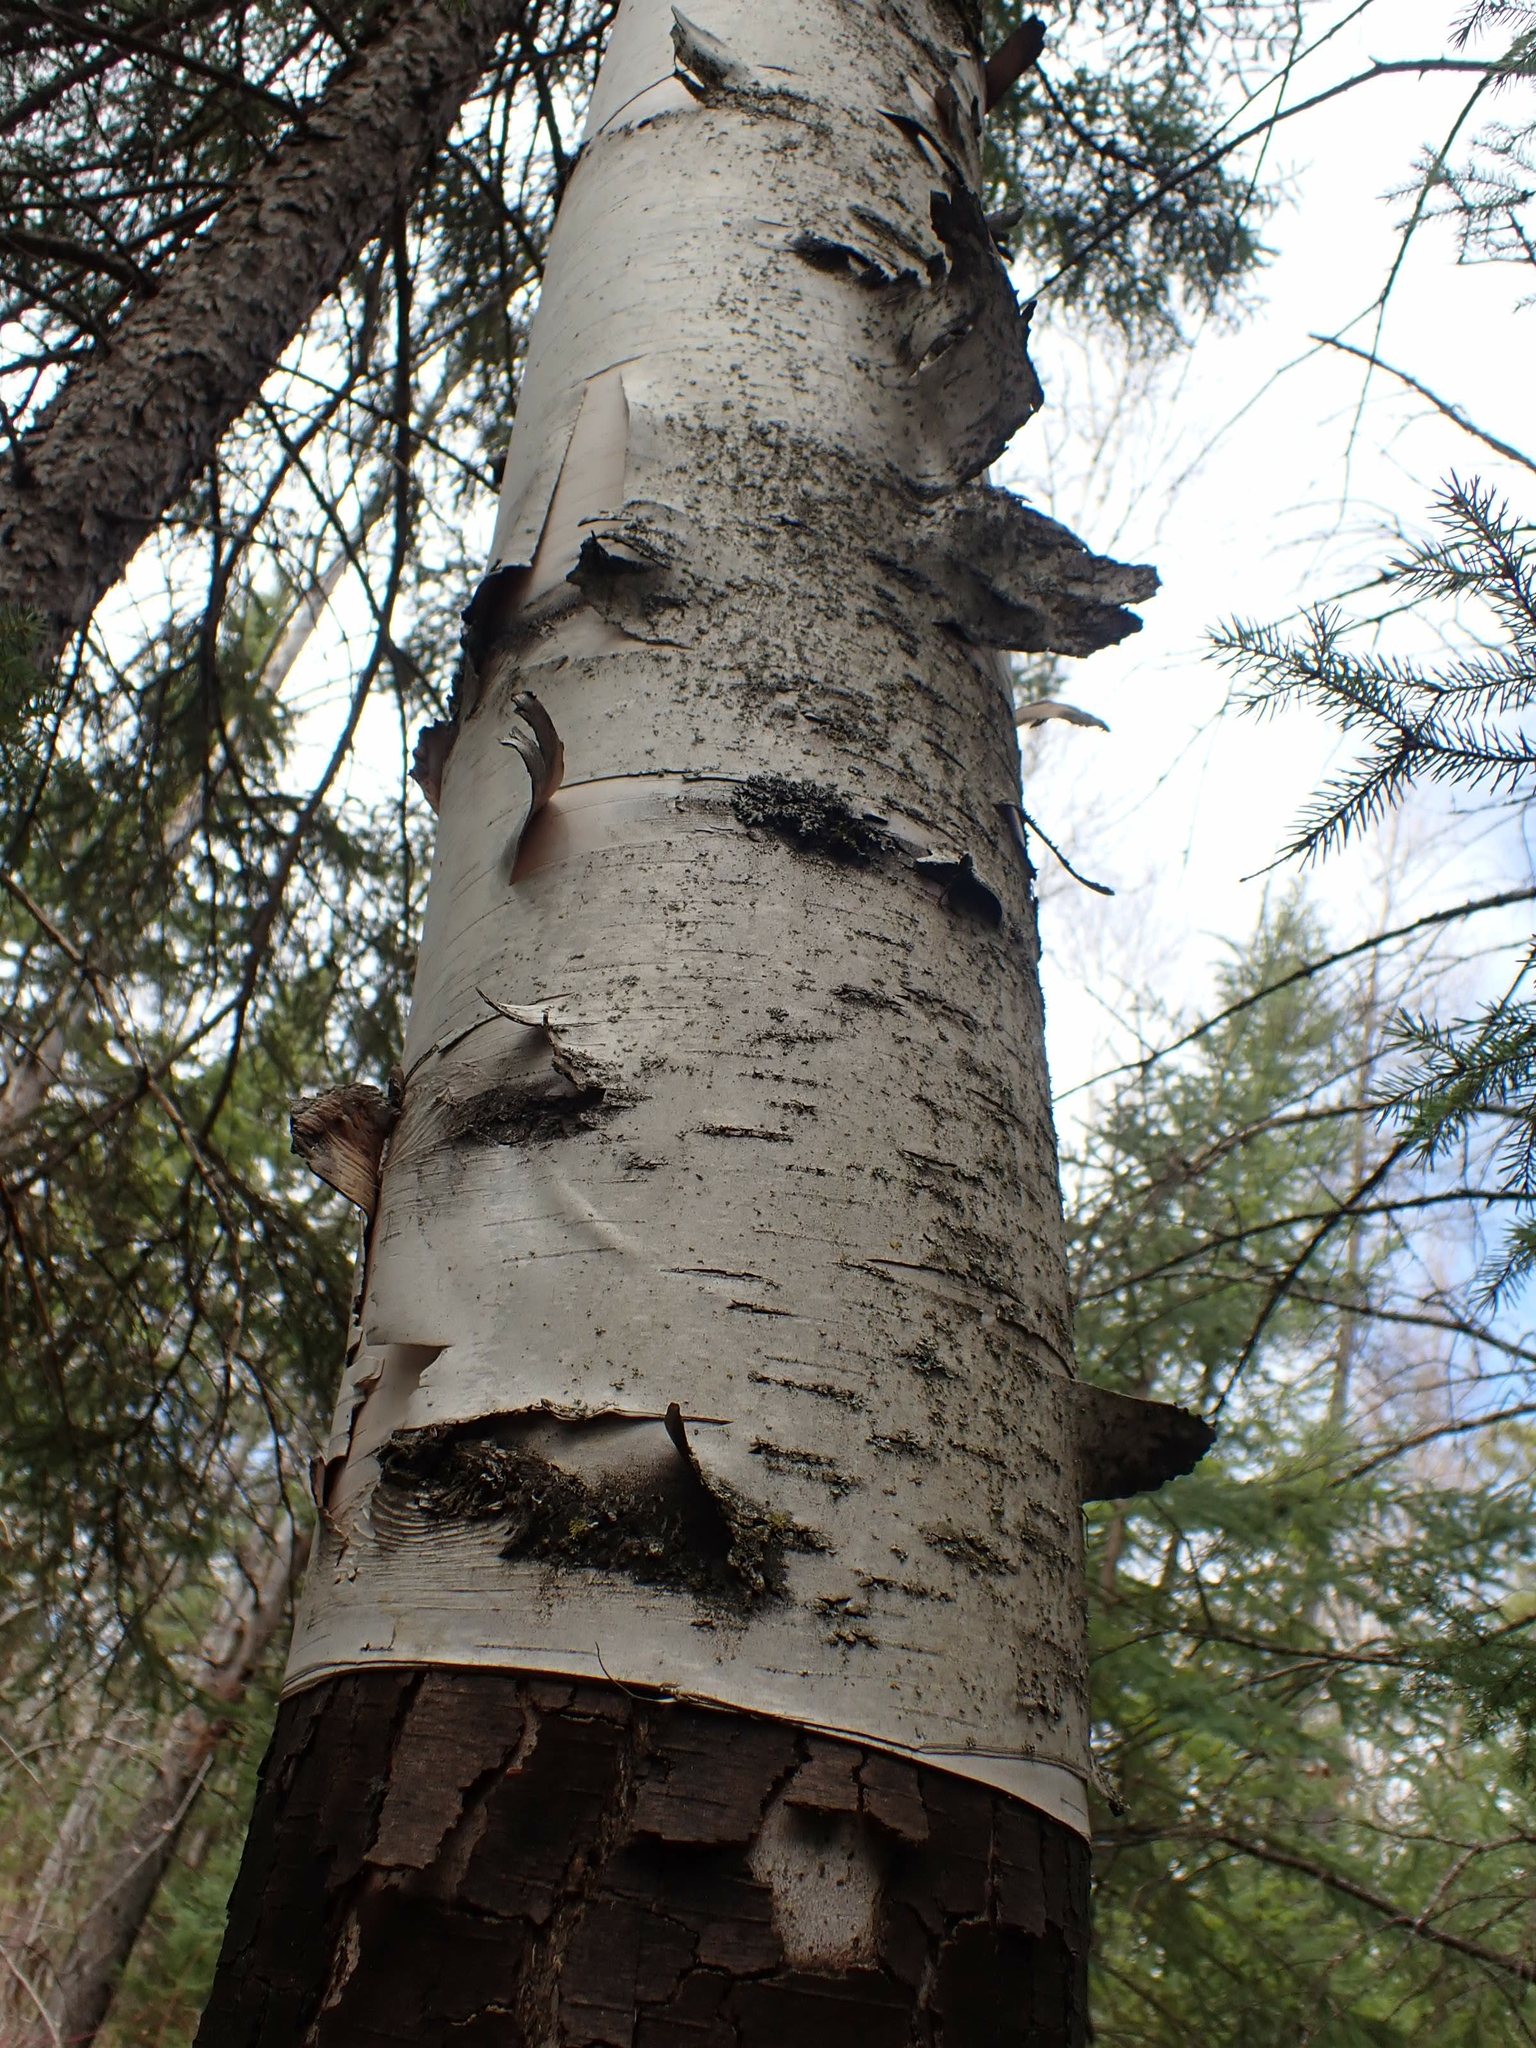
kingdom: Plantae
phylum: Tracheophyta
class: Magnoliopsida
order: Fagales
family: Betulaceae
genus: Betula
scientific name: Betula papyrifera
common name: Paper birch
